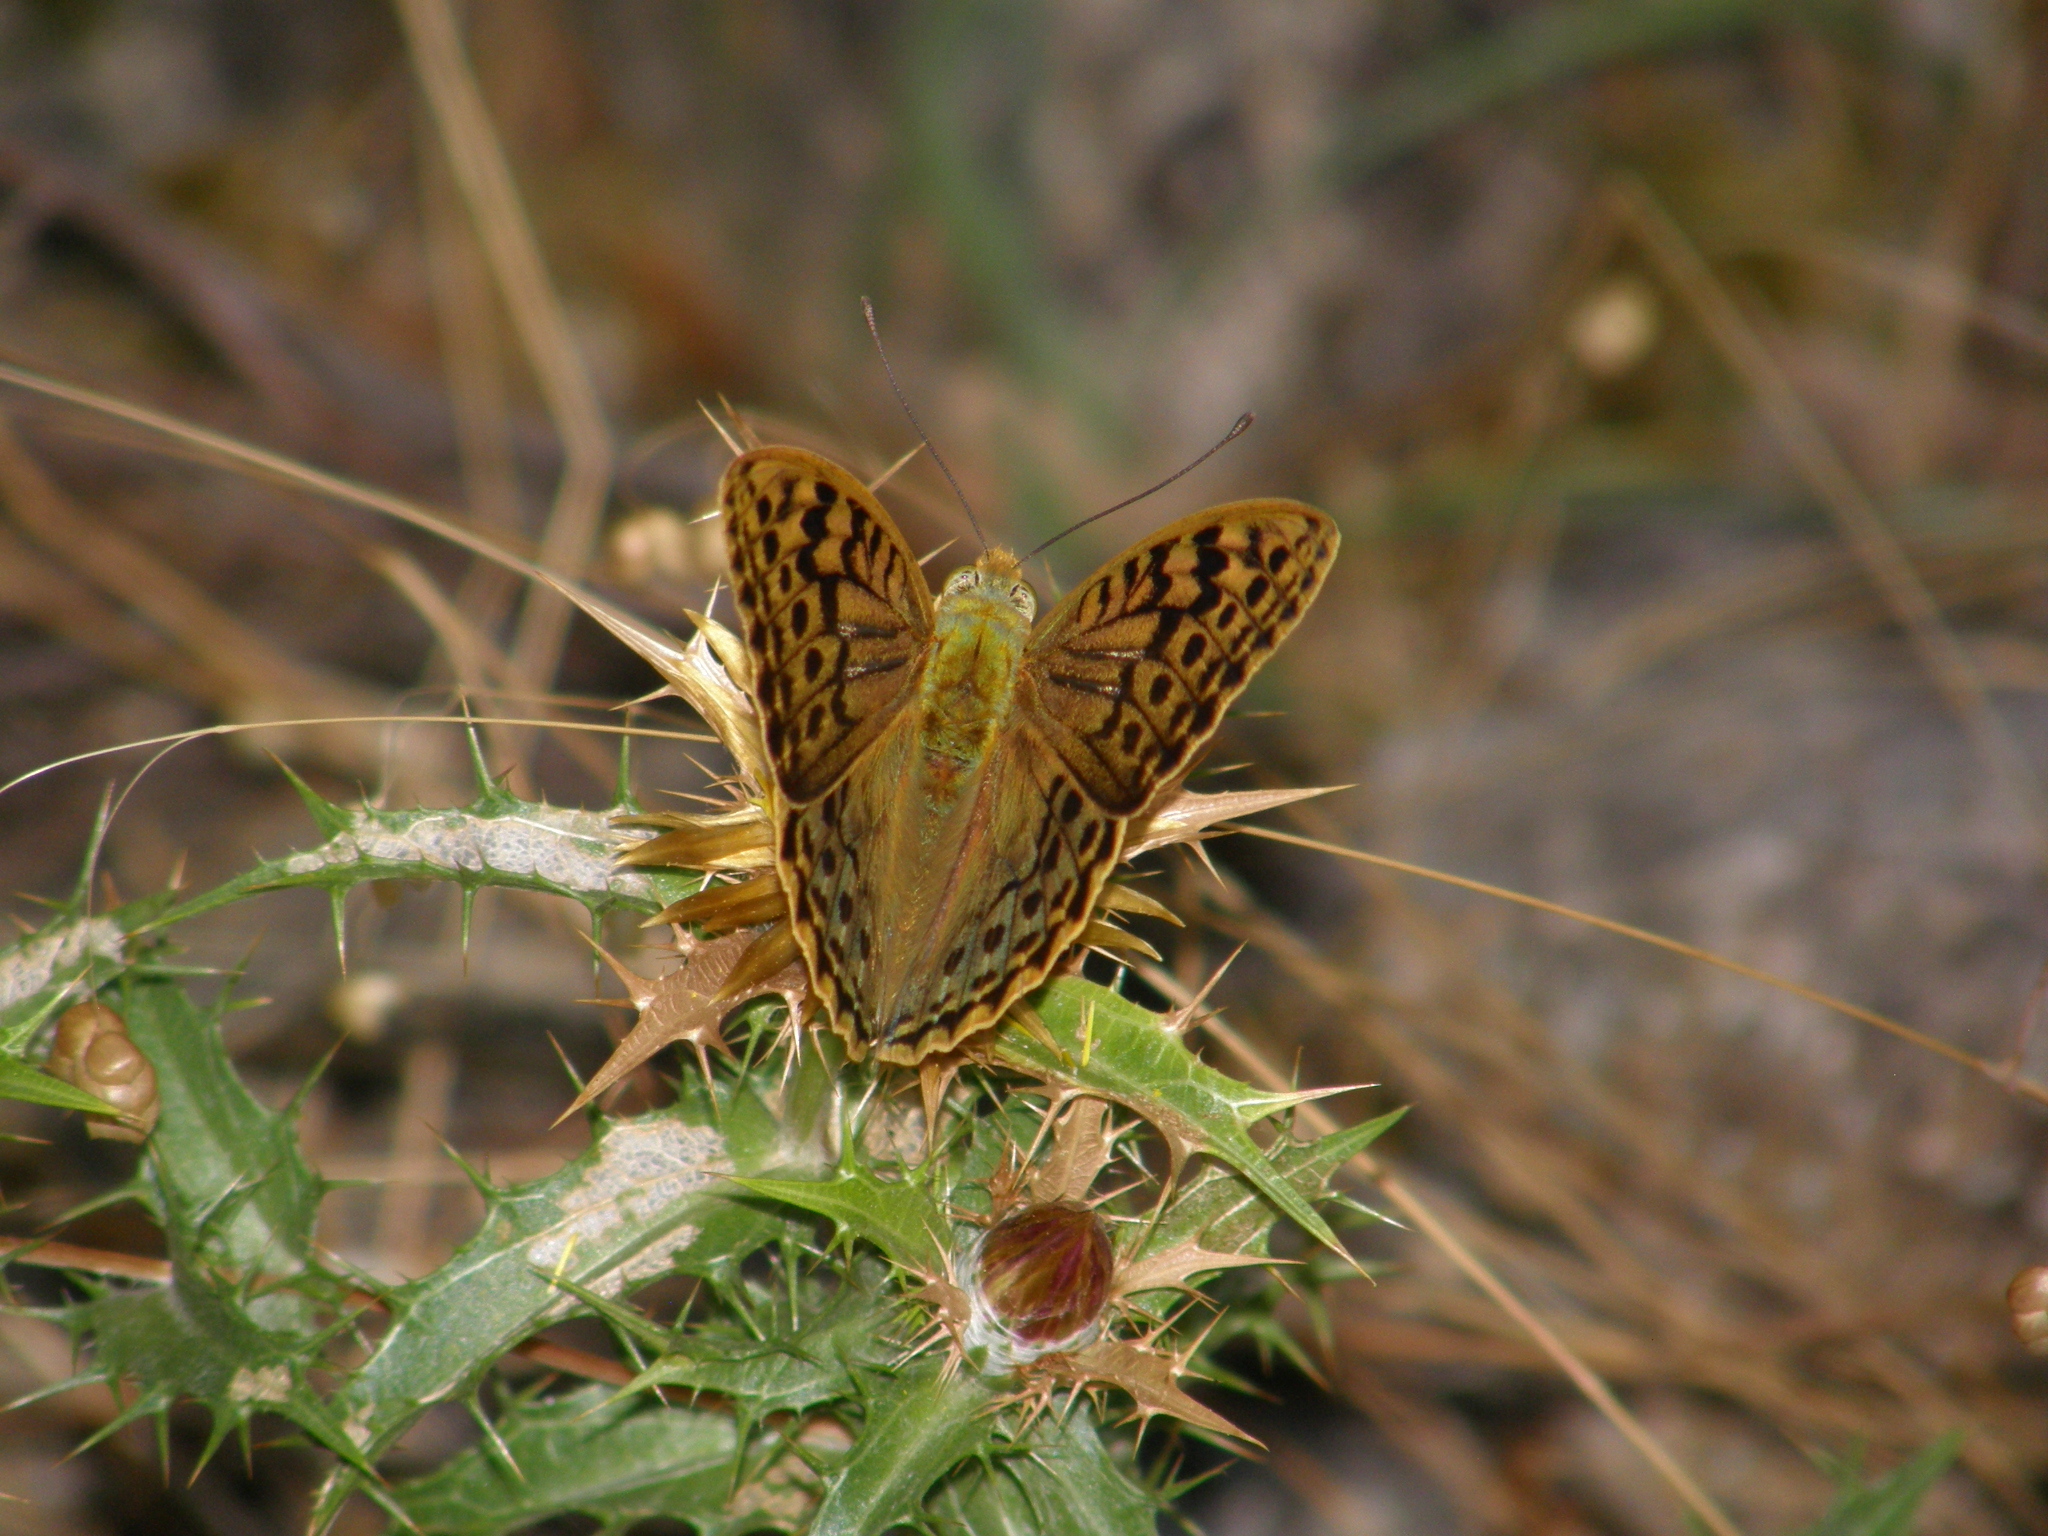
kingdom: Animalia
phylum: Arthropoda
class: Insecta
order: Lepidoptera
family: Nymphalidae
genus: Damora
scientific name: Damora pandora
